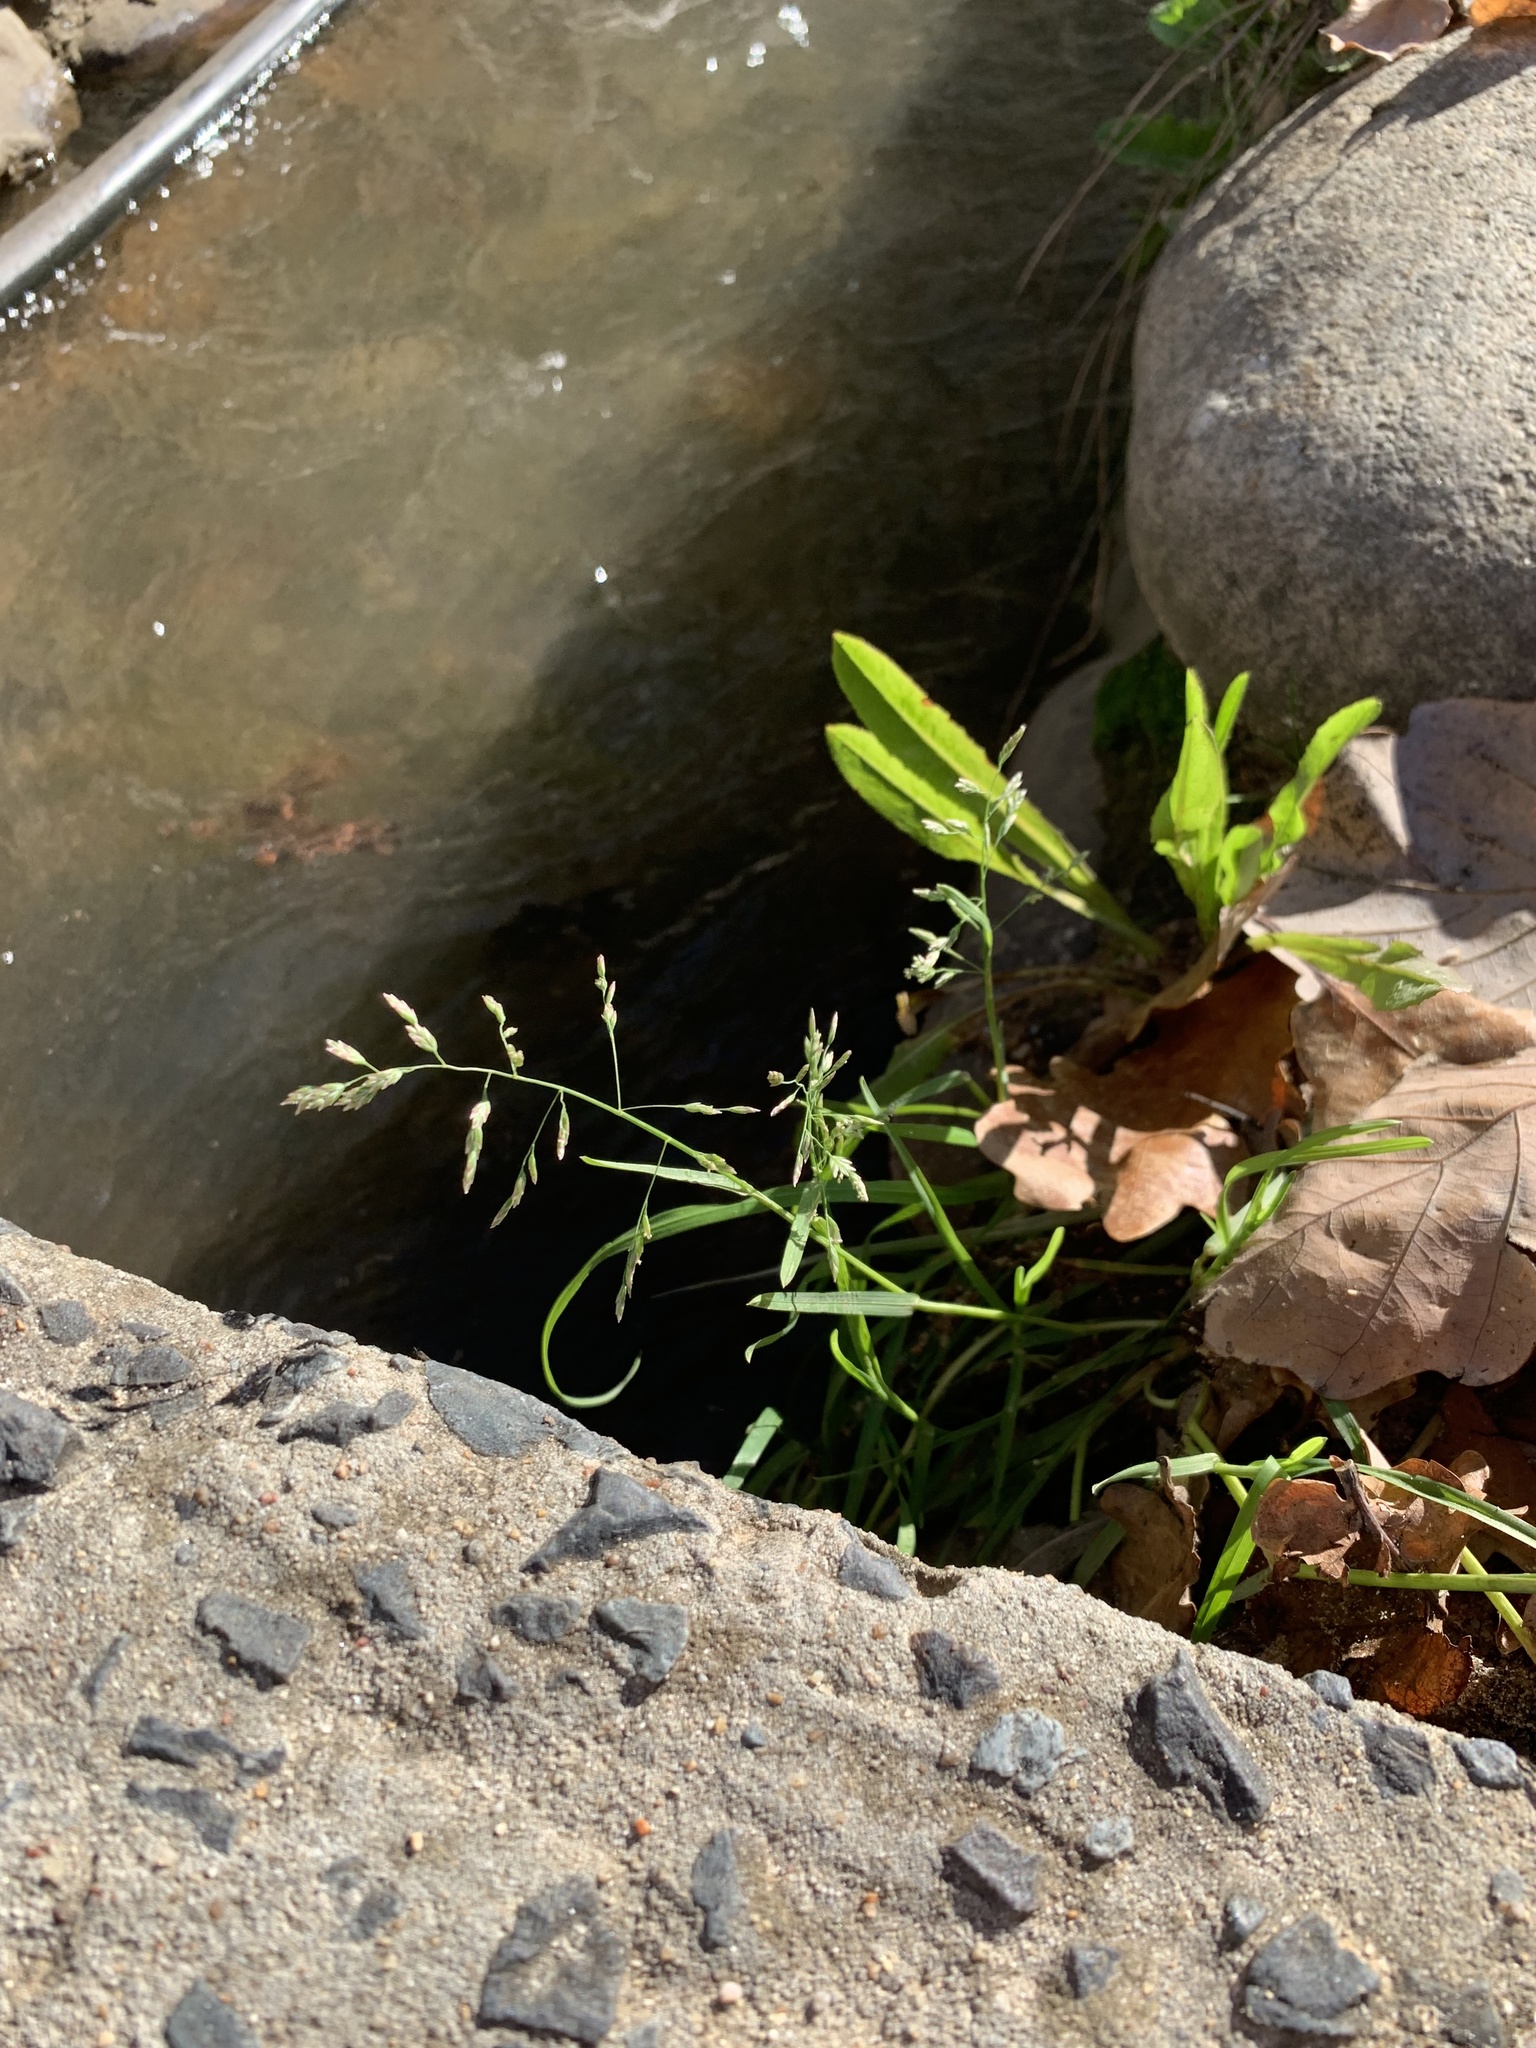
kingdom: Plantae
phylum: Tracheophyta
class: Liliopsida
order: Poales
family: Poaceae
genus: Poa
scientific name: Poa annua
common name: Annual bluegrass
